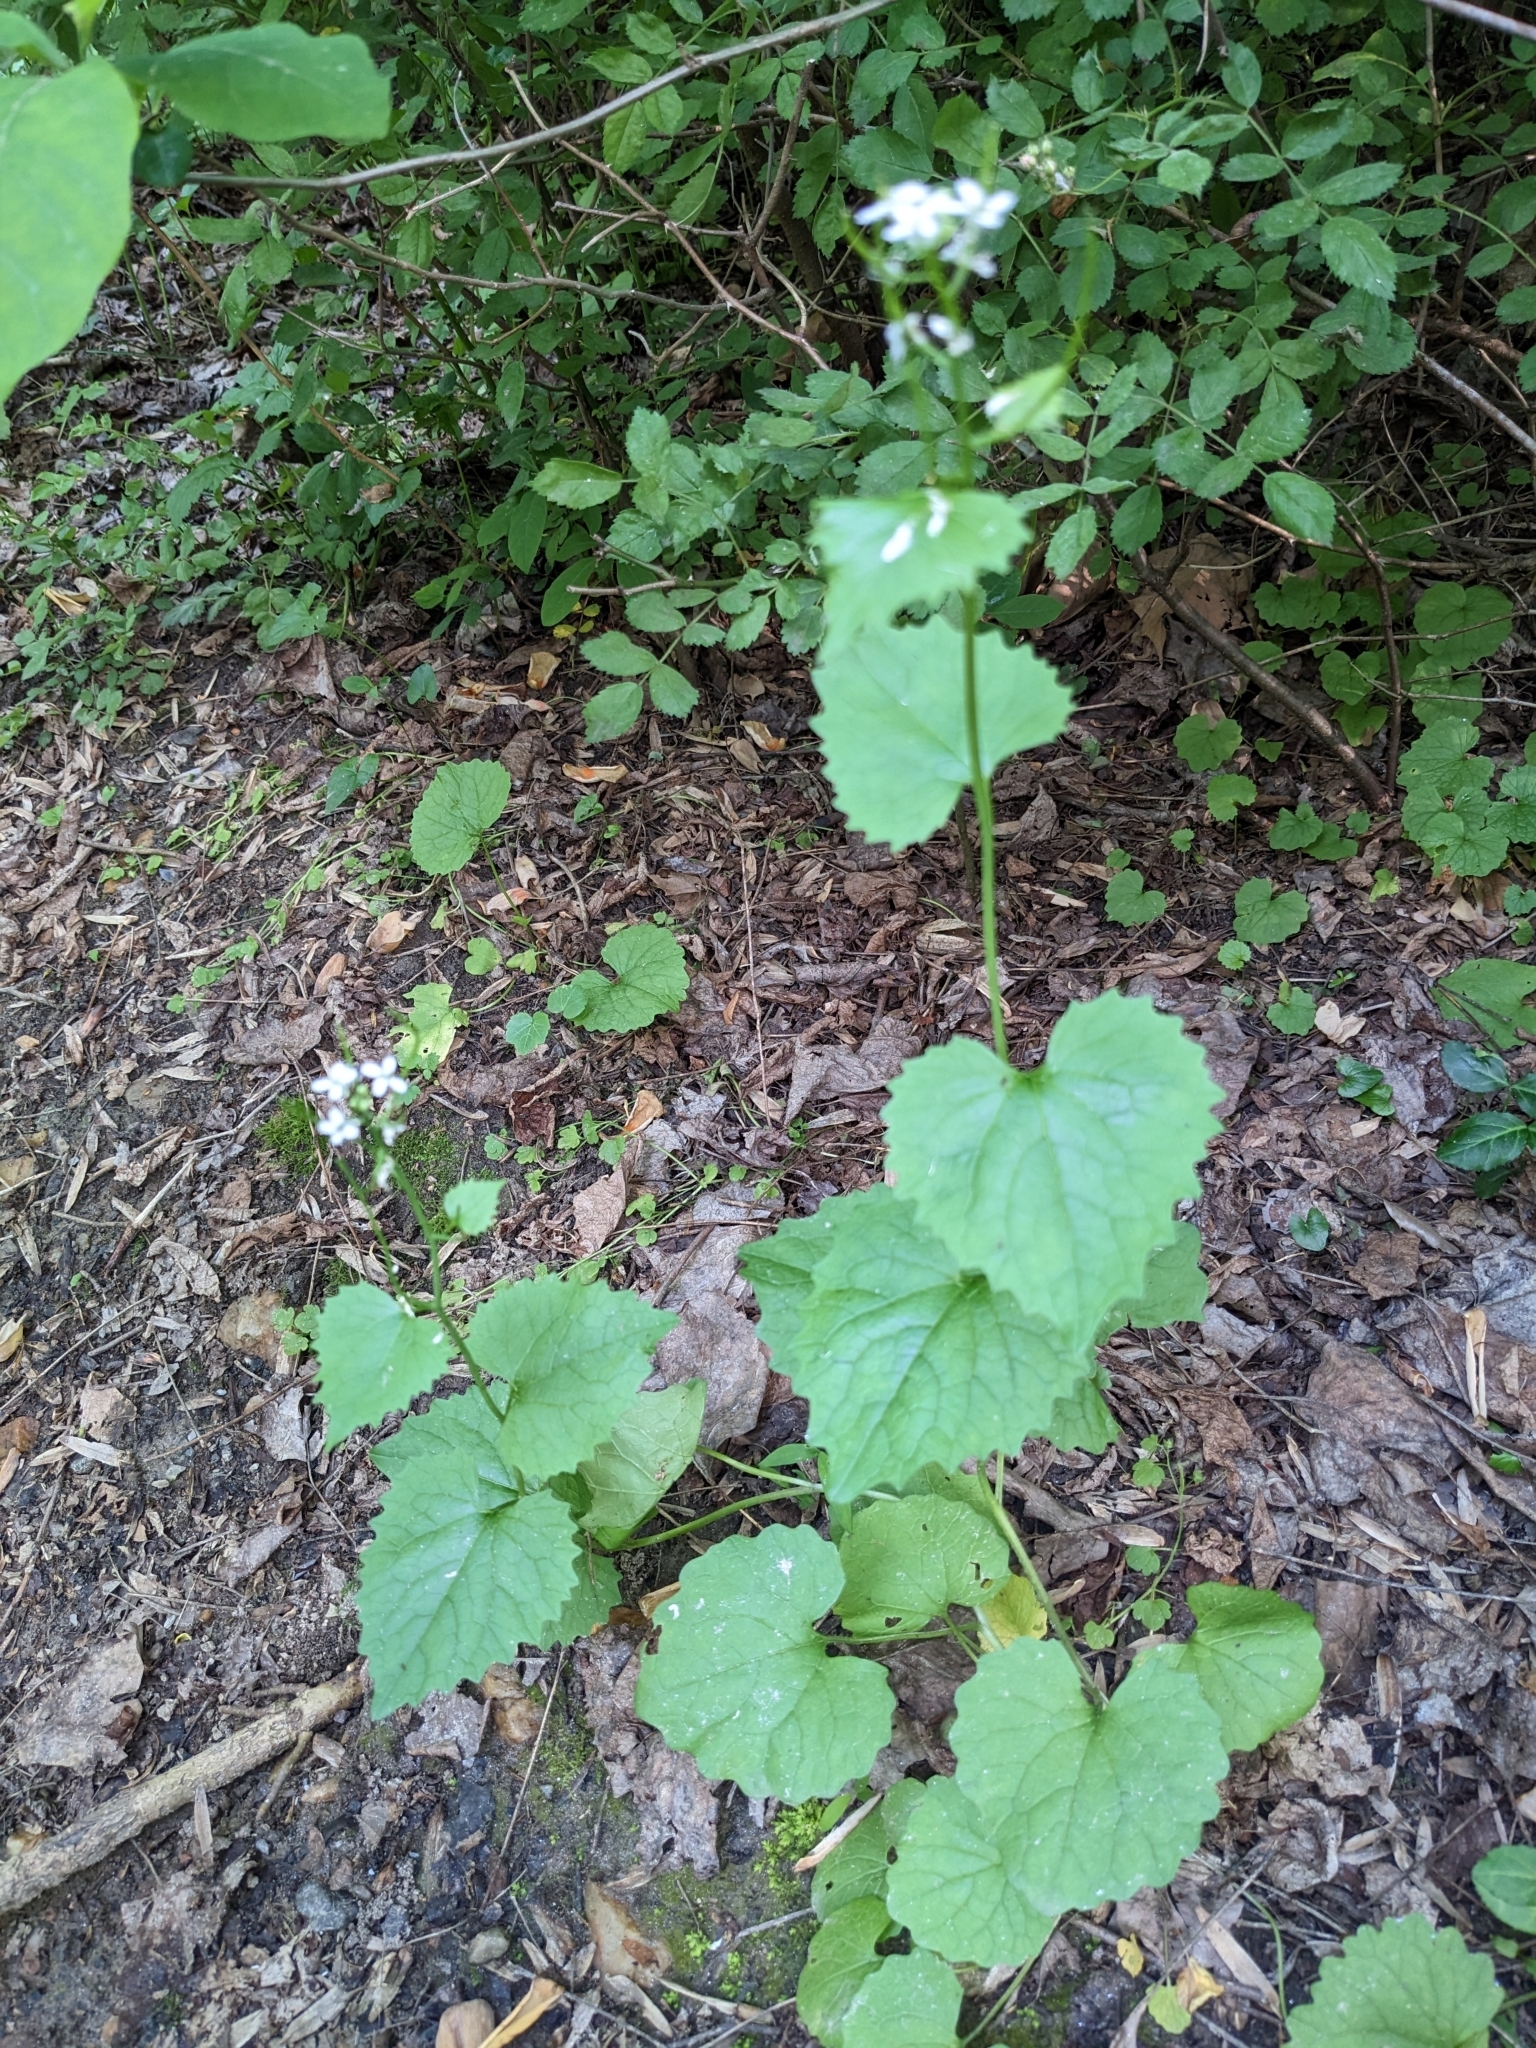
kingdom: Plantae
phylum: Tracheophyta
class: Magnoliopsida
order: Brassicales
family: Brassicaceae
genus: Alliaria
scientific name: Alliaria petiolata
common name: Garlic mustard
